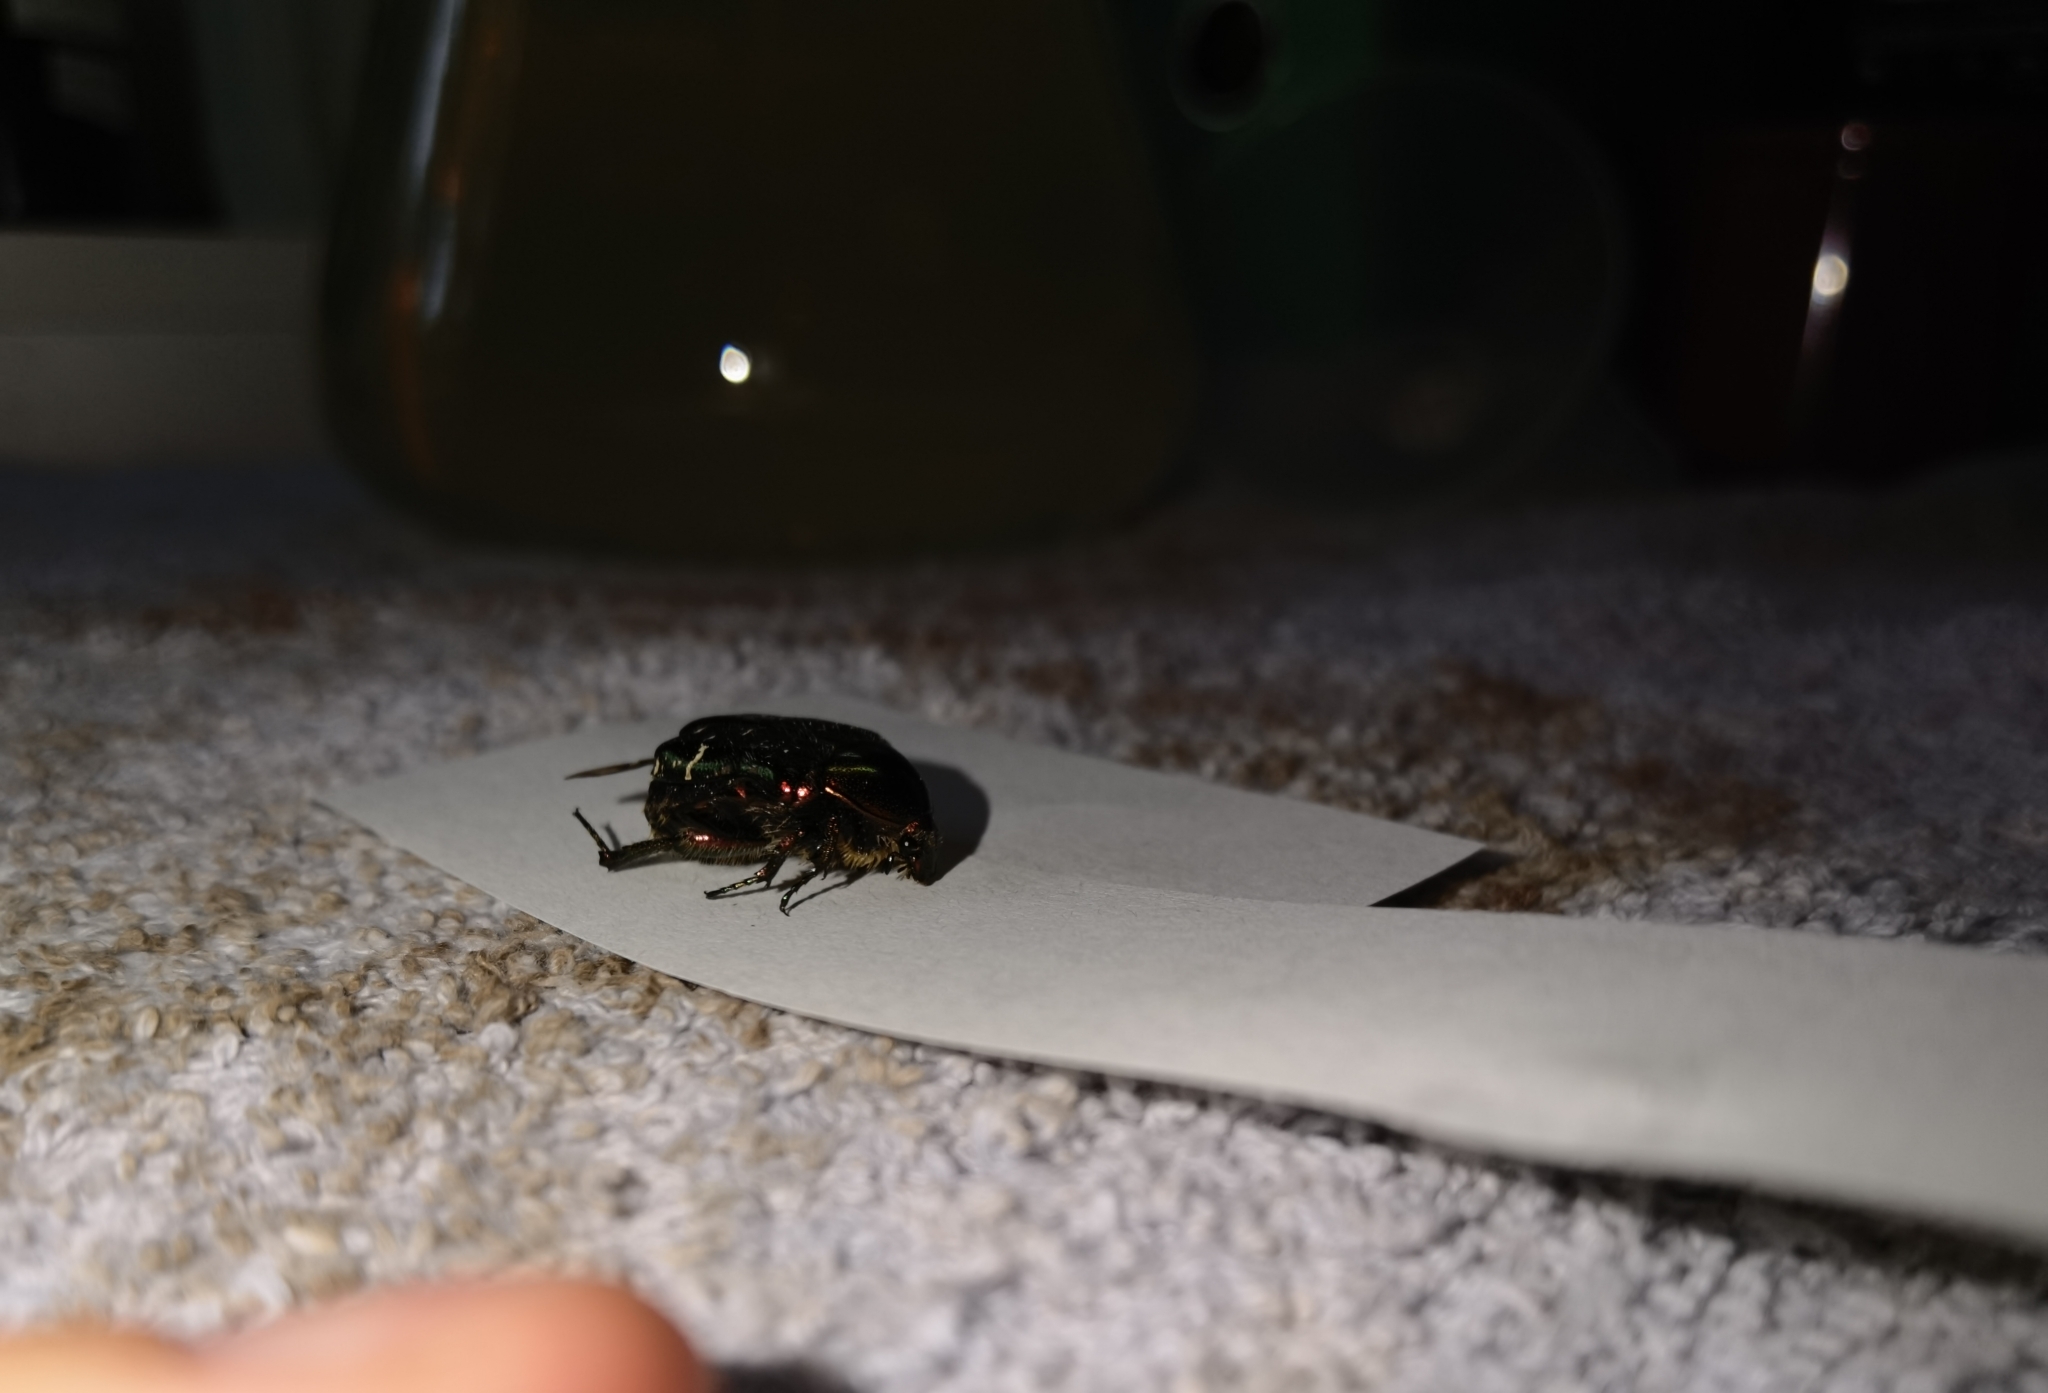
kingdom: Animalia
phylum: Arthropoda
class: Insecta
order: Coleoptera
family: Scarabaeidae
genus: Cetonia
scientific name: Cetonia aurata
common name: Rose chafer
